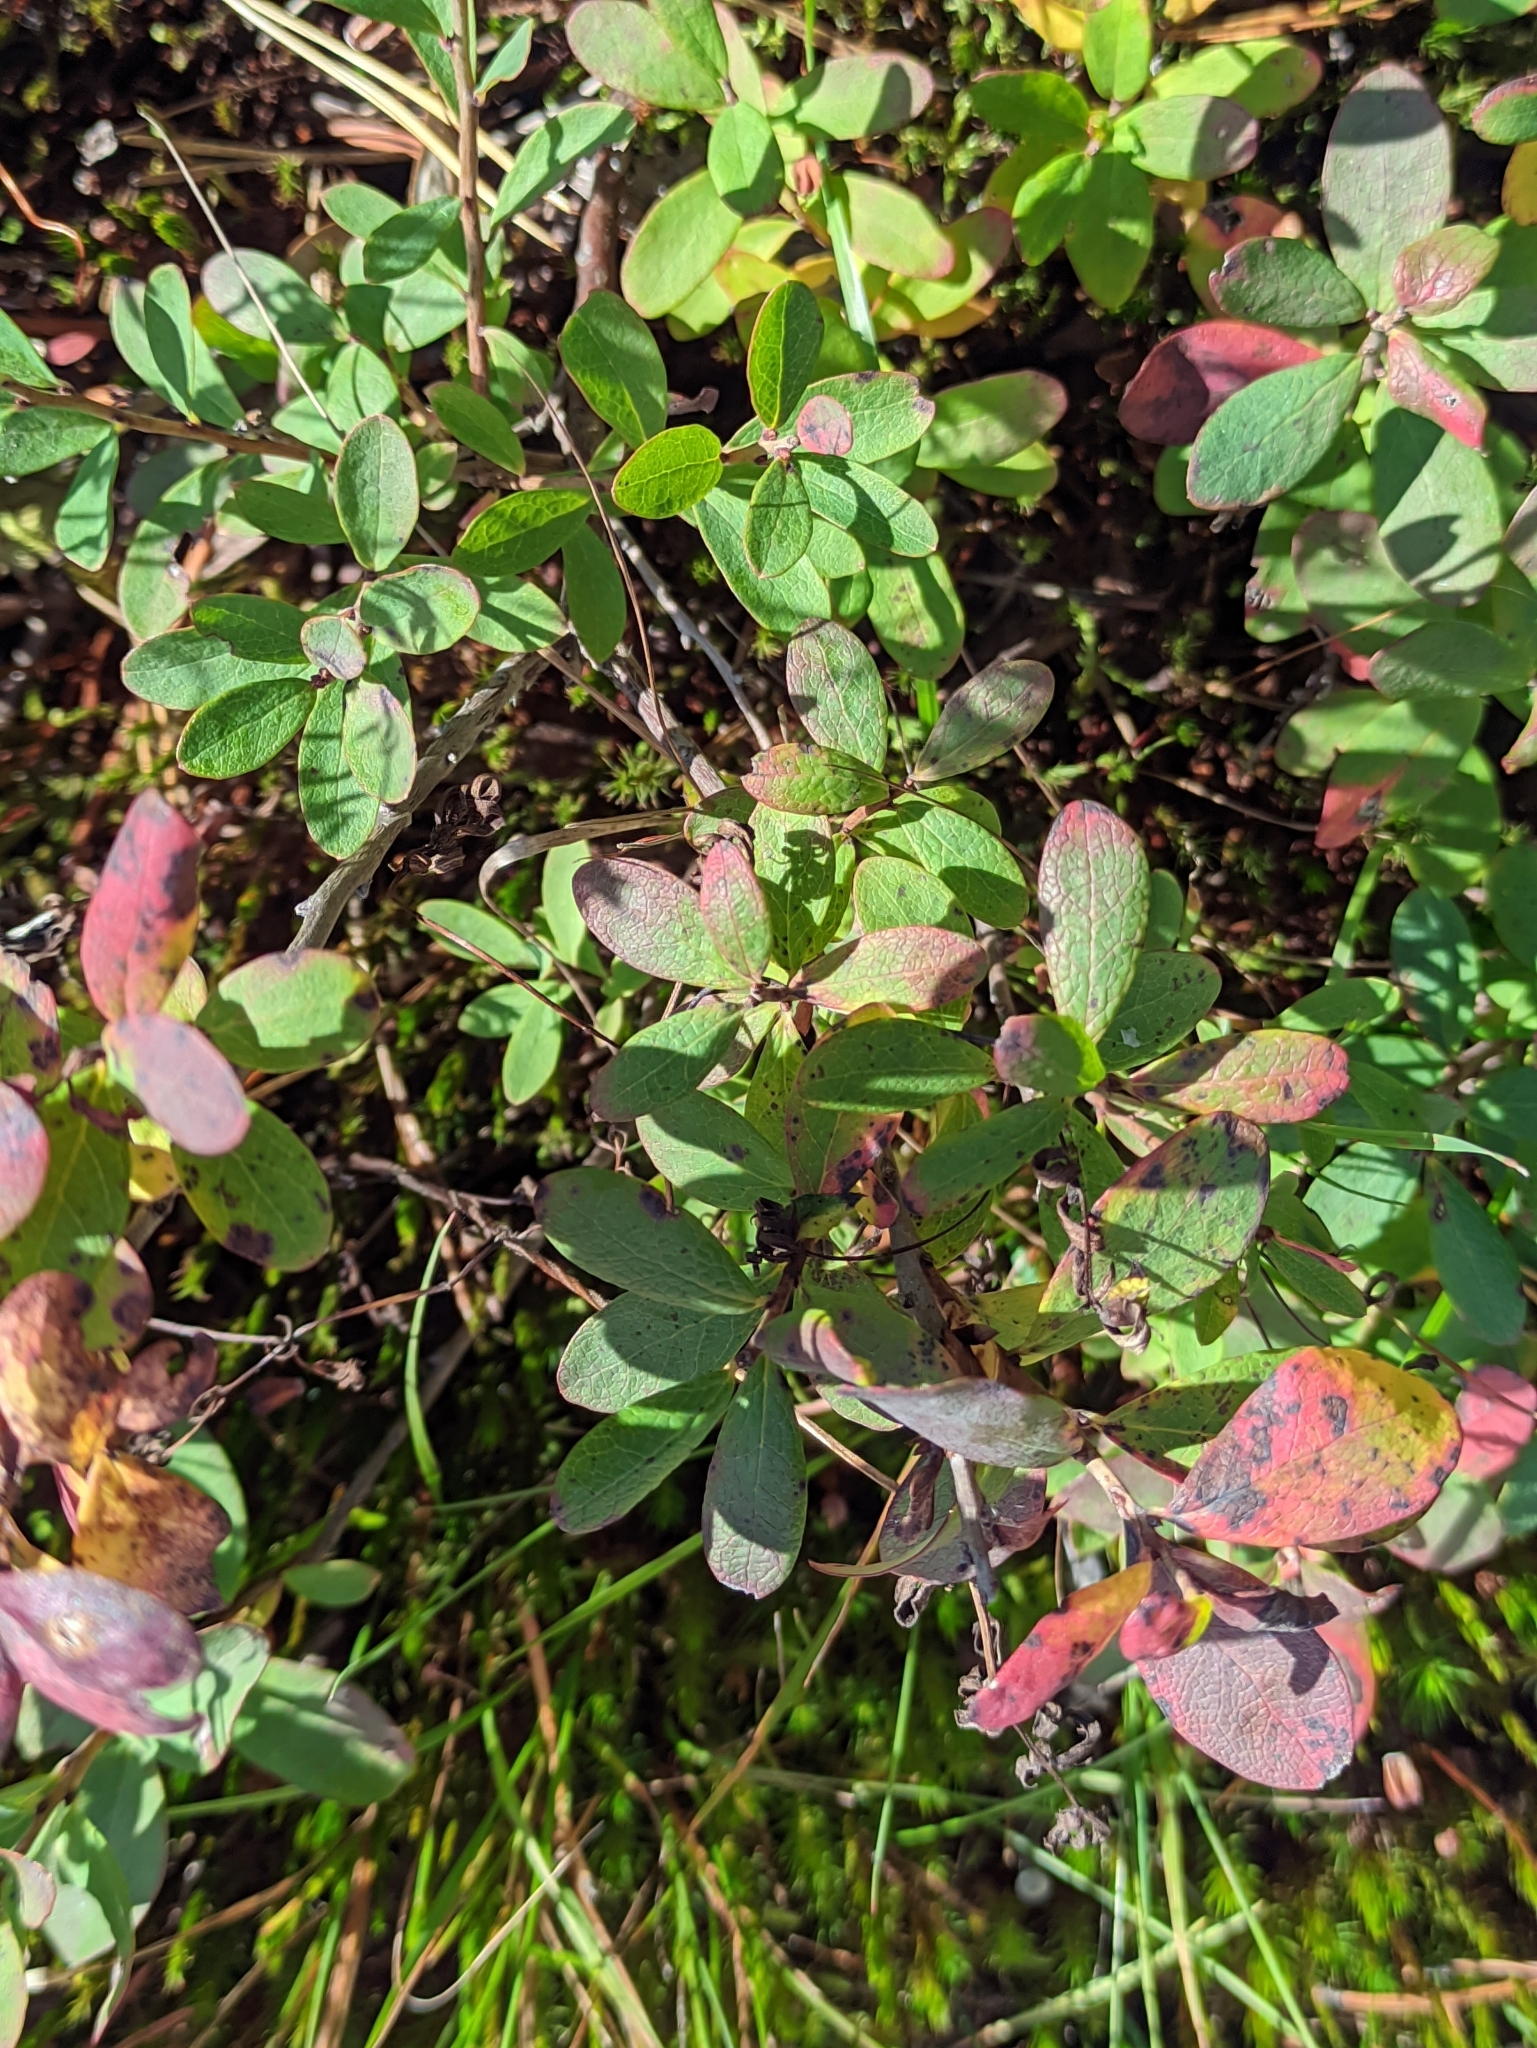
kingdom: Plantae
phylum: Tracheophyta
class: Magnoliopsida
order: Ericales
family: Ericaceae
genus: Vaccinium
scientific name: Vaccinium uliginosum
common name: Bog bilberry
